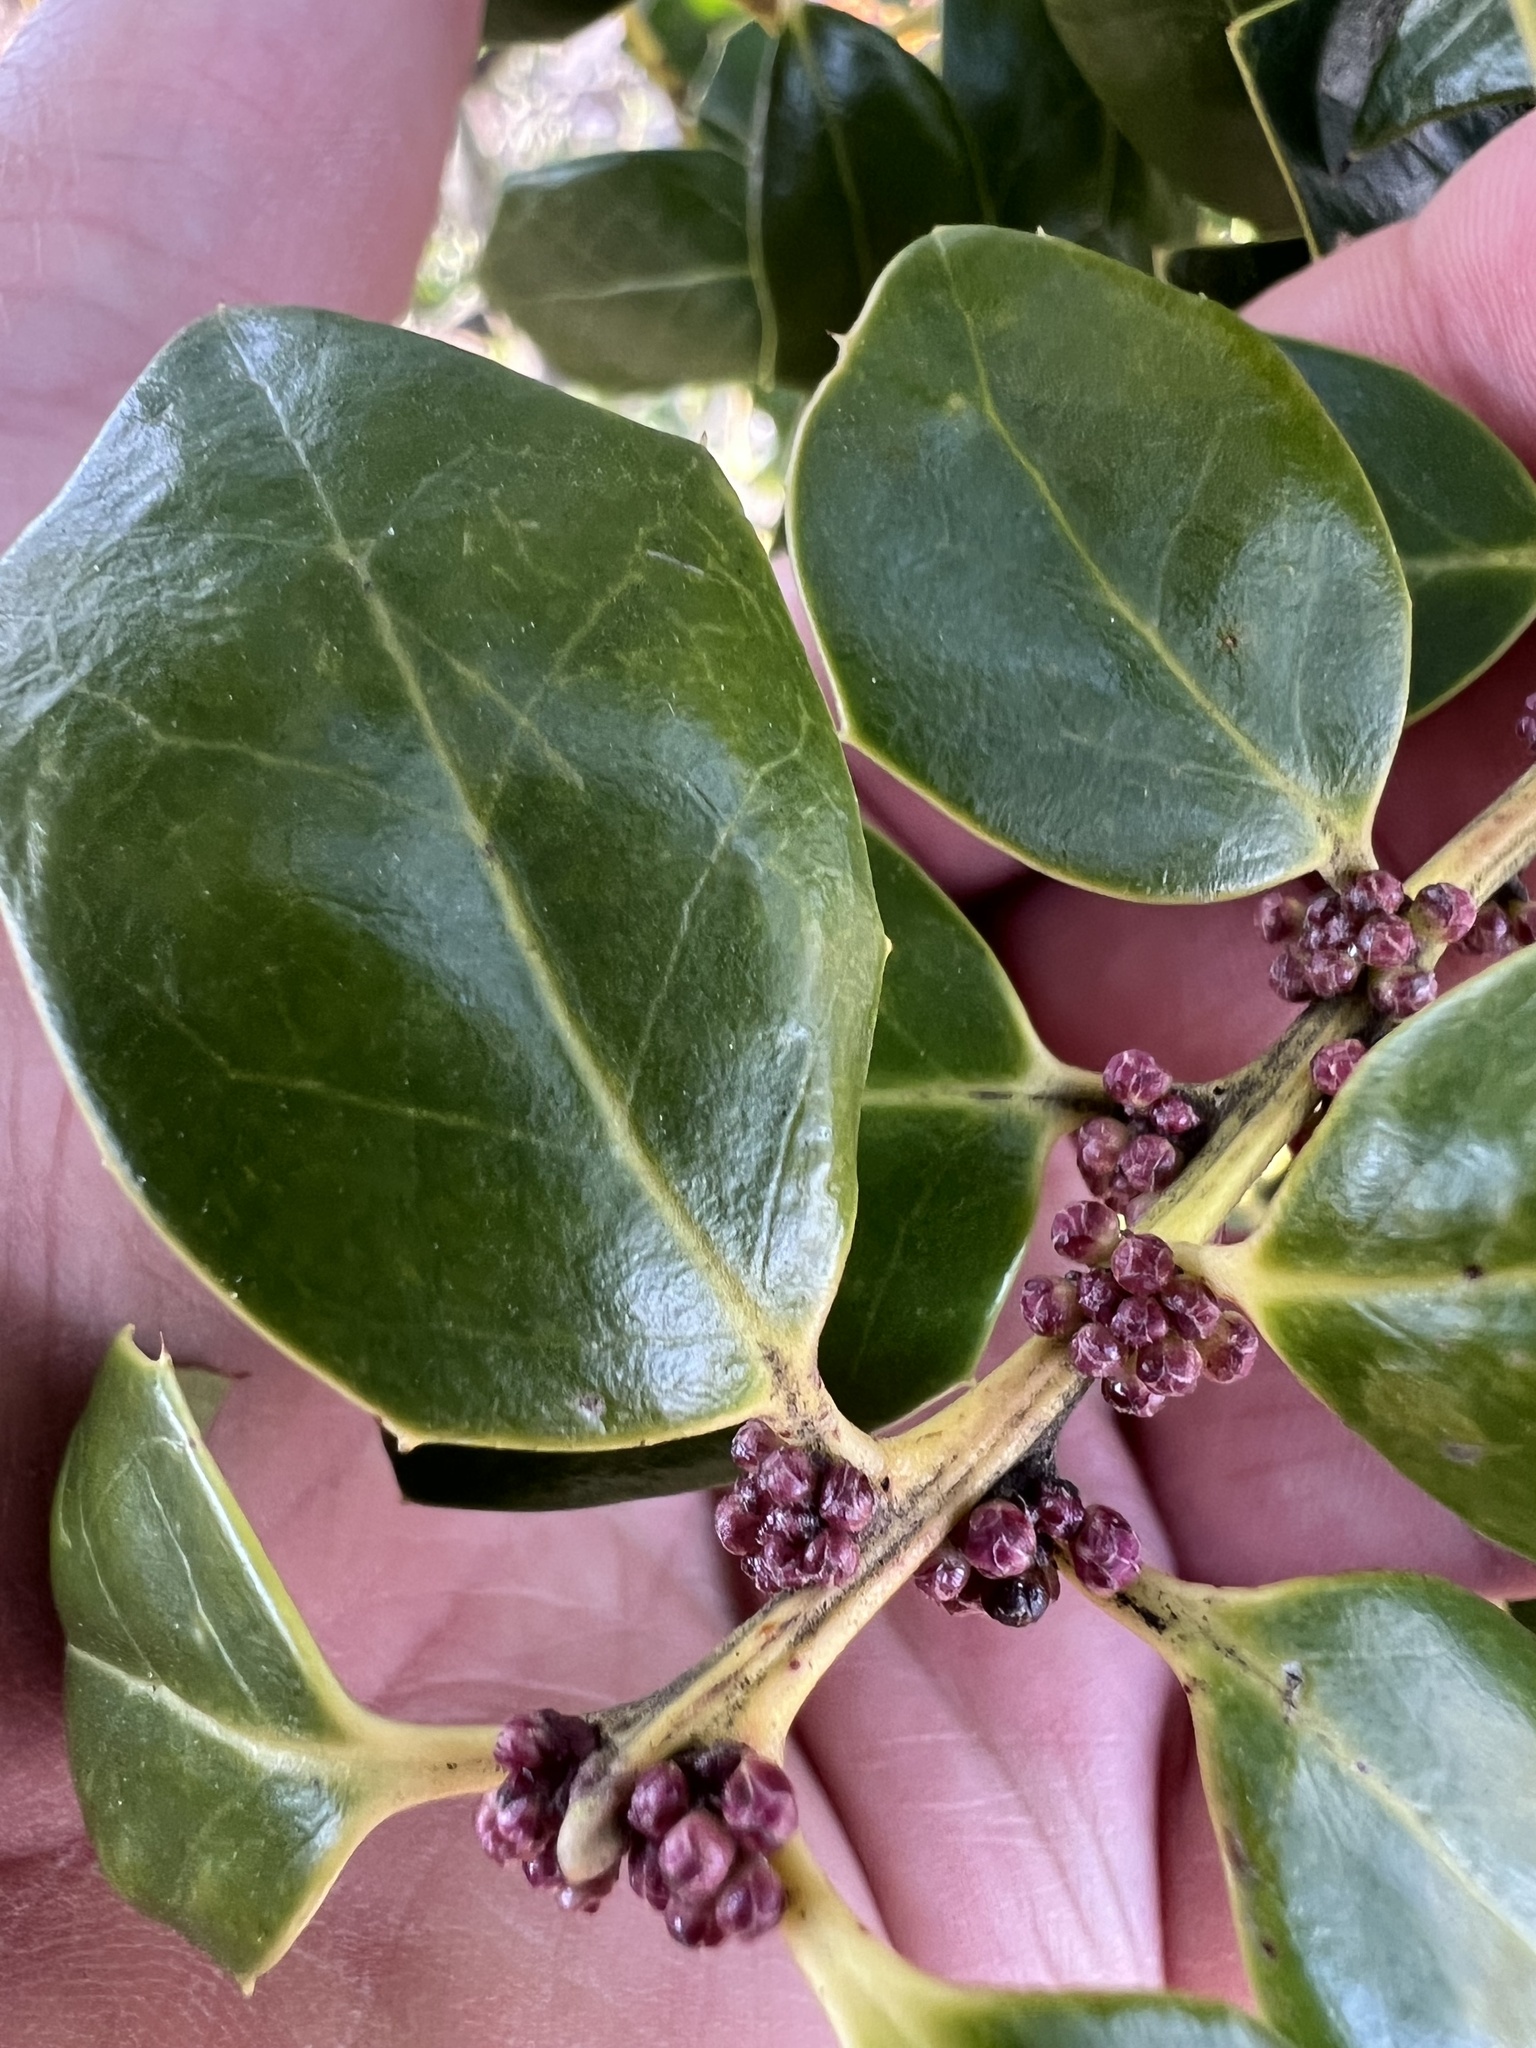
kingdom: Plantae
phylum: Tracheophyta
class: Magnoliopsida
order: Aquifoliales
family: Aquifoliaceae
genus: Ilex
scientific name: Ilex cornuta
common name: Chinese holly
